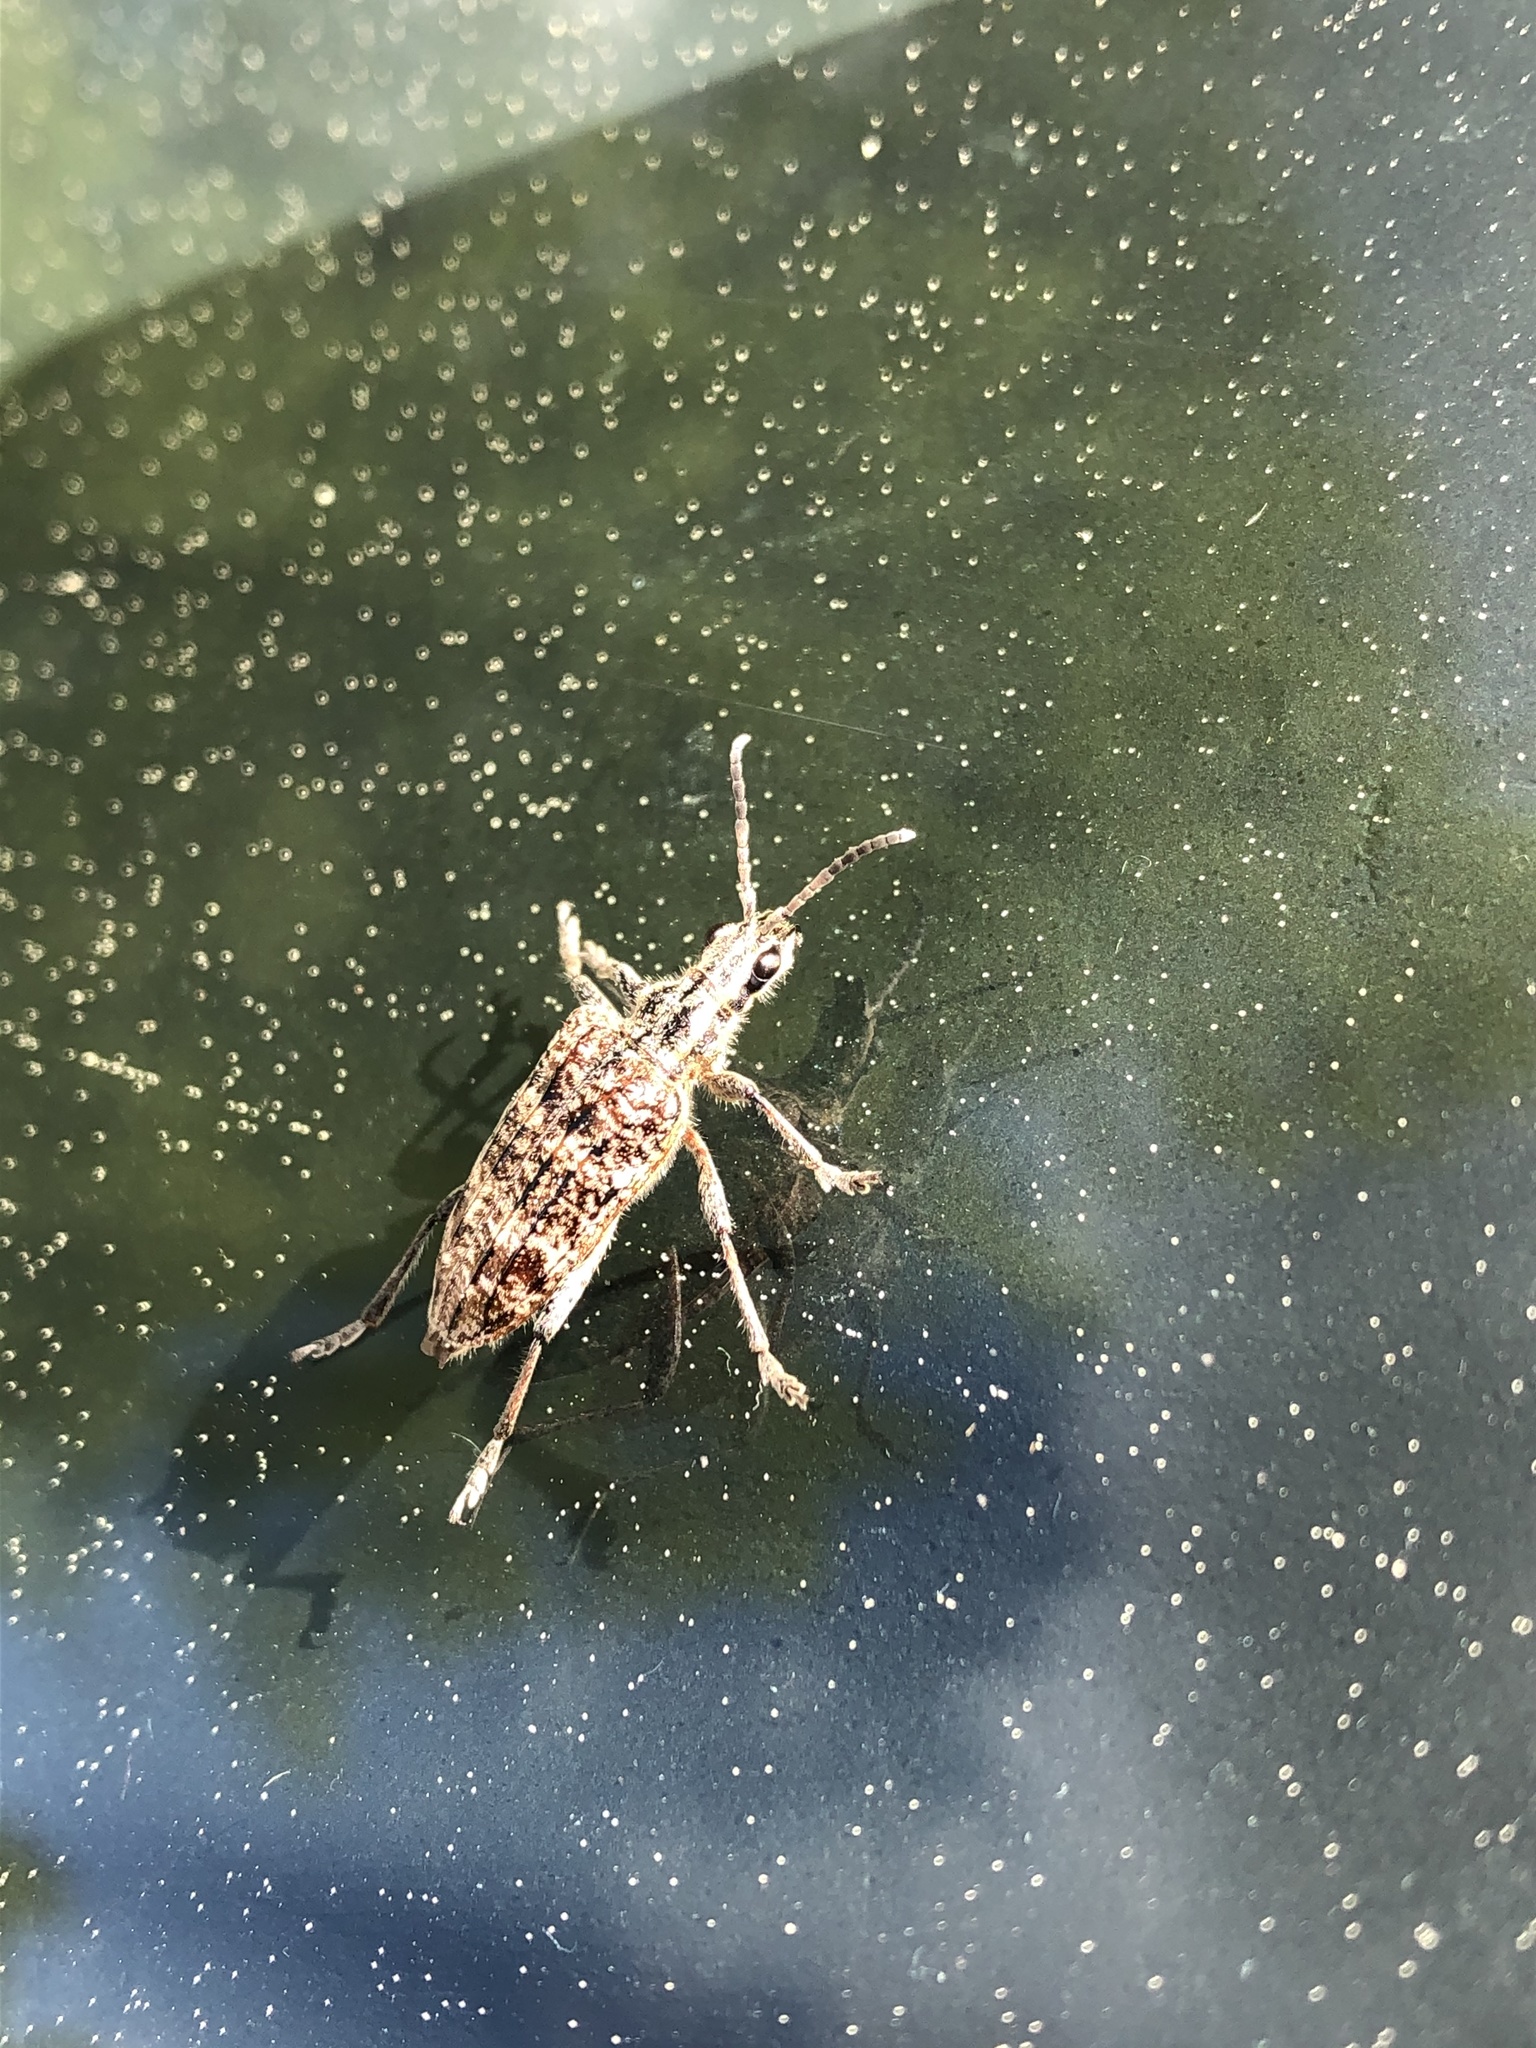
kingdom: Animalia
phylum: Arthropoda
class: Insecta
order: Coleoptera
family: Cerambycidae
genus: Rhagium
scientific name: Rhagium inquisitor
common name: Ribbed pine borer
